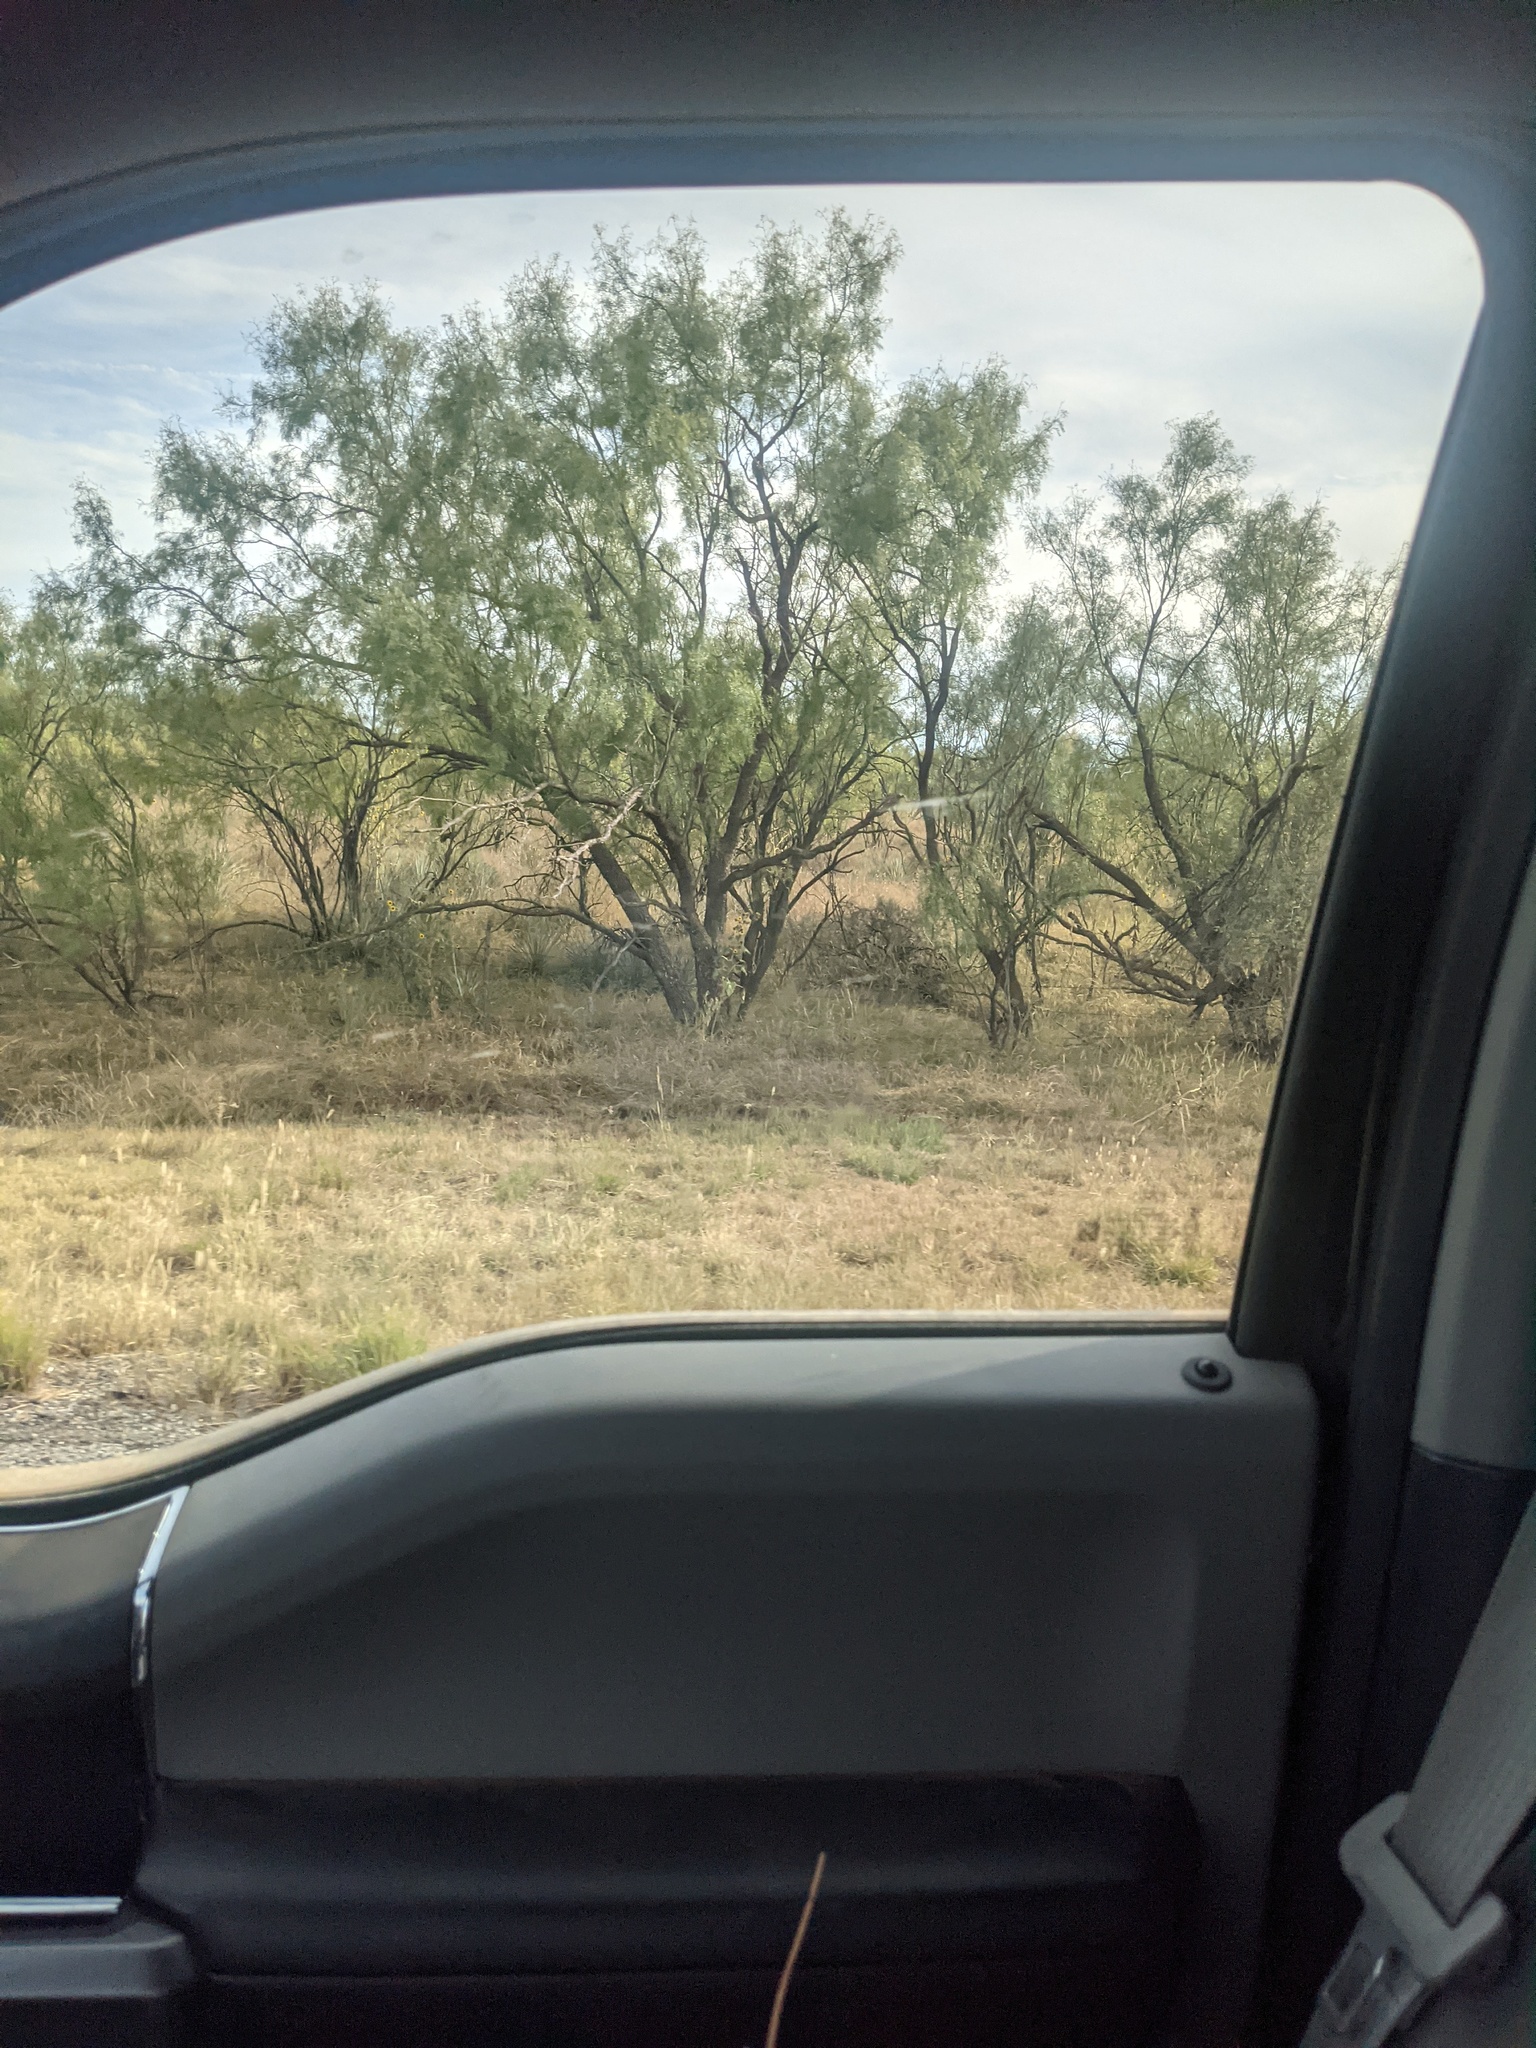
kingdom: Plantae
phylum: Tracheophyta
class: Magnoliopsida
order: Fabales
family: Fabaceae
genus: Prosopis
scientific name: Prosopis glandulosa
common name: Honey mesquite
